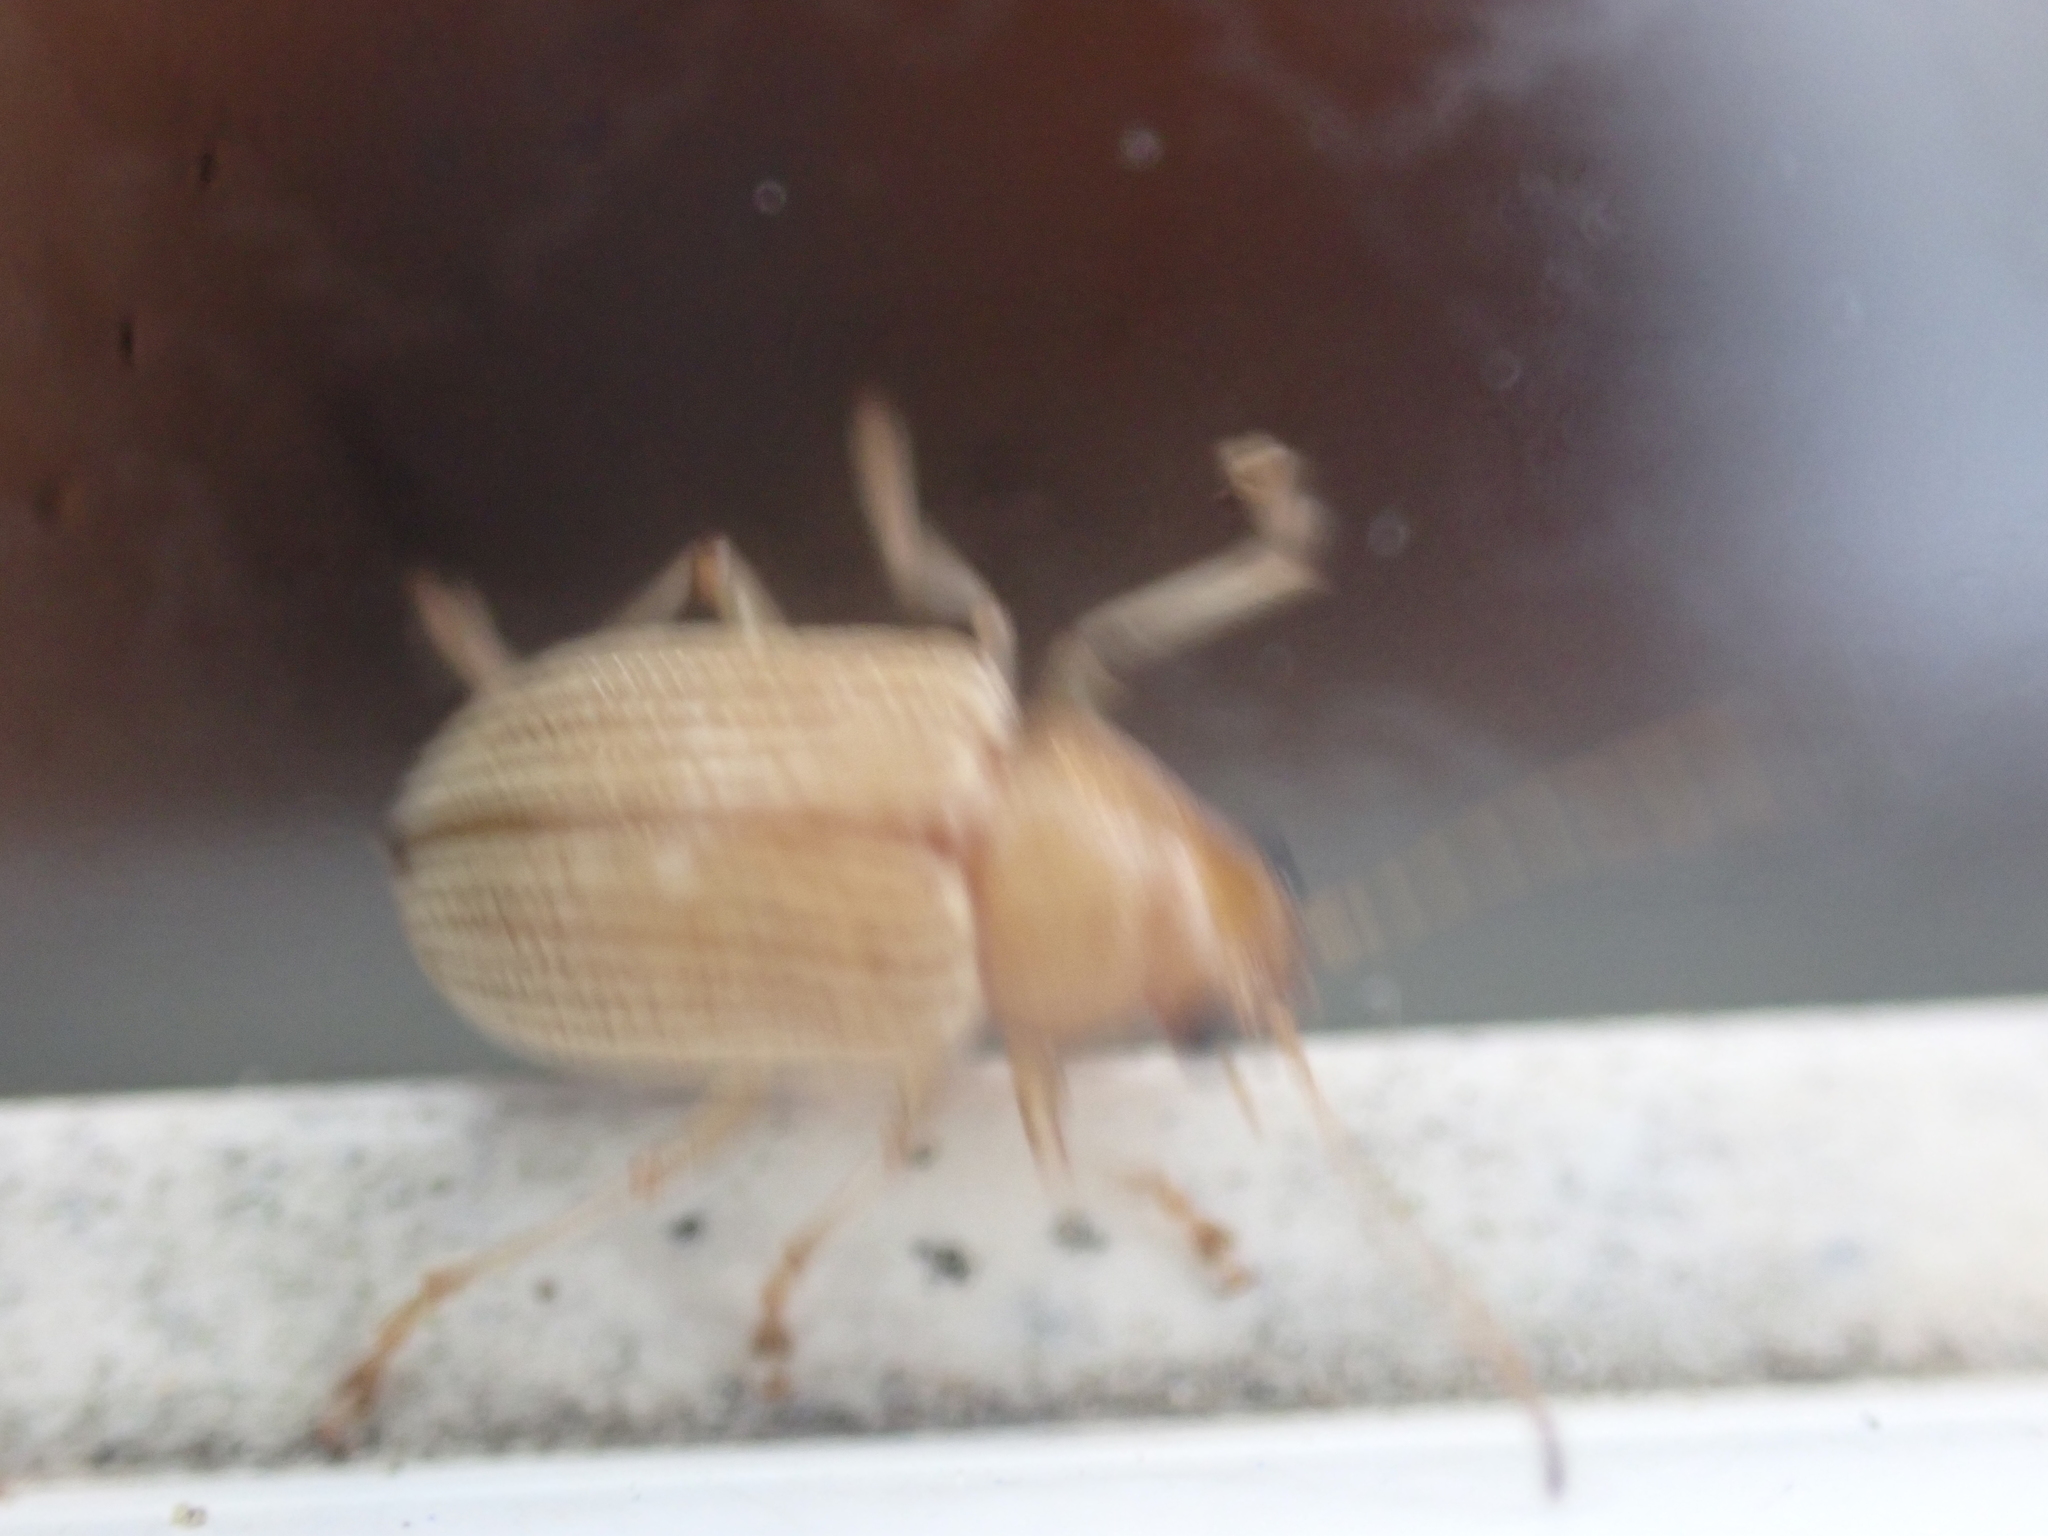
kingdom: Animalia
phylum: Arthropoda
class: Insecta
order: Coleoptera
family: Chrysomelidae
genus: Colaspis
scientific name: Colaspis brunnea
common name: Grape colaspis
